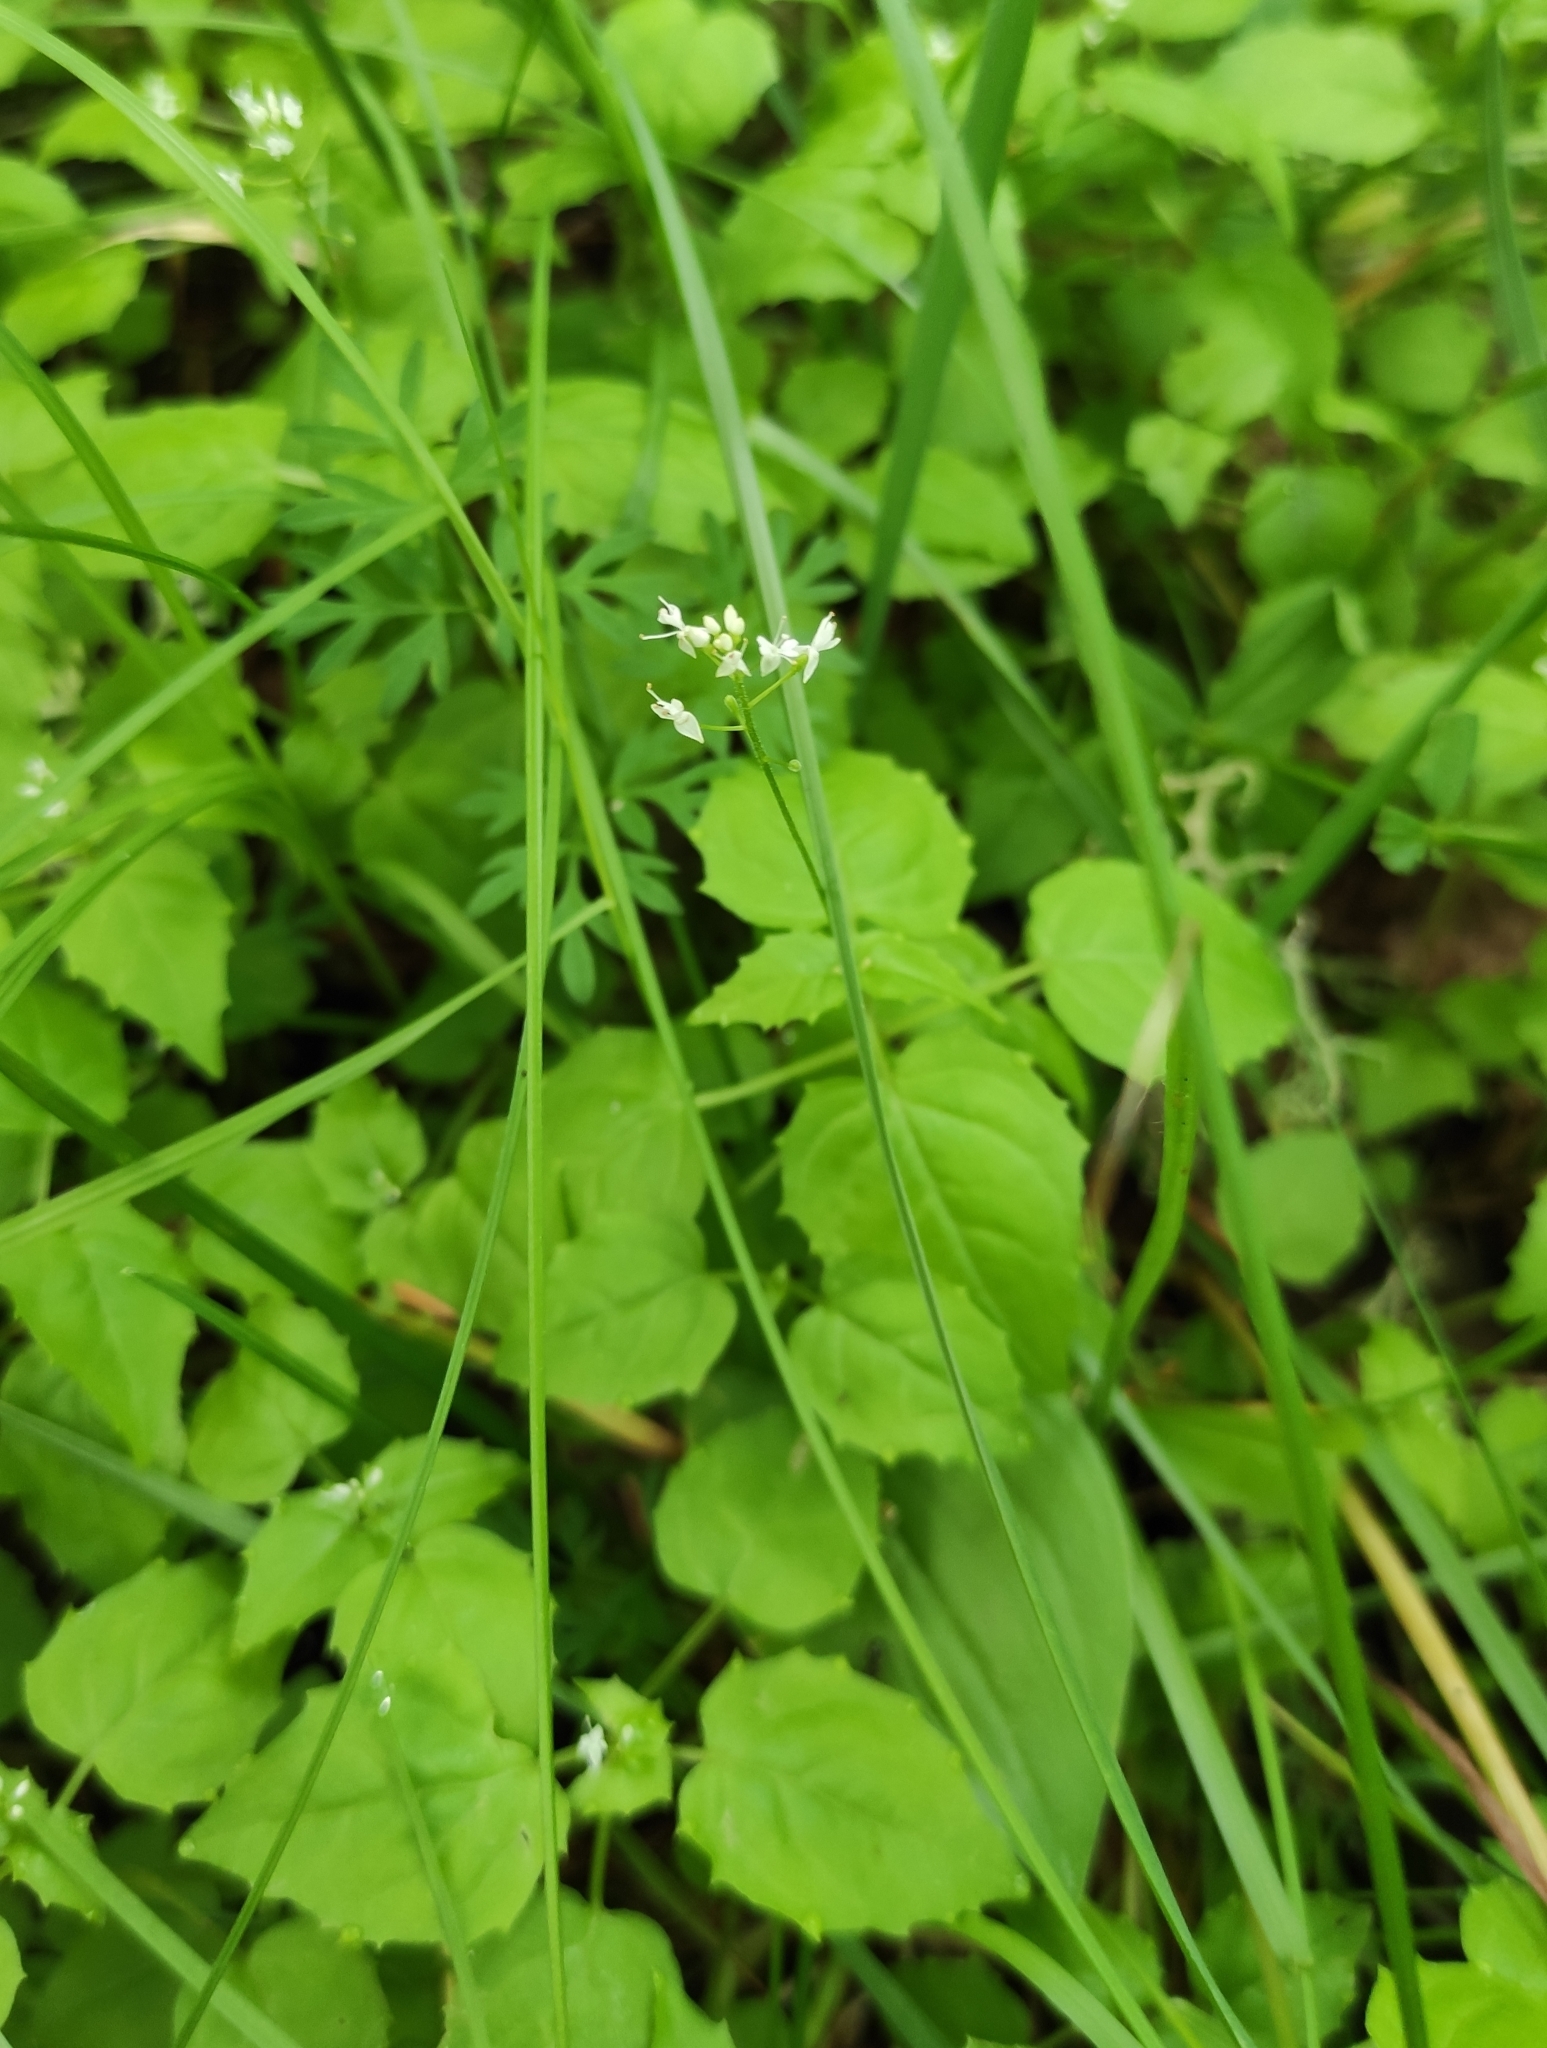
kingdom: Plantae
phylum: Tracheophyta
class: Magnoliopsida
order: Myrtales
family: Onagraceae
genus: Circaea
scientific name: Circaea alpina
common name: Alpine enchanter's-nightshade
